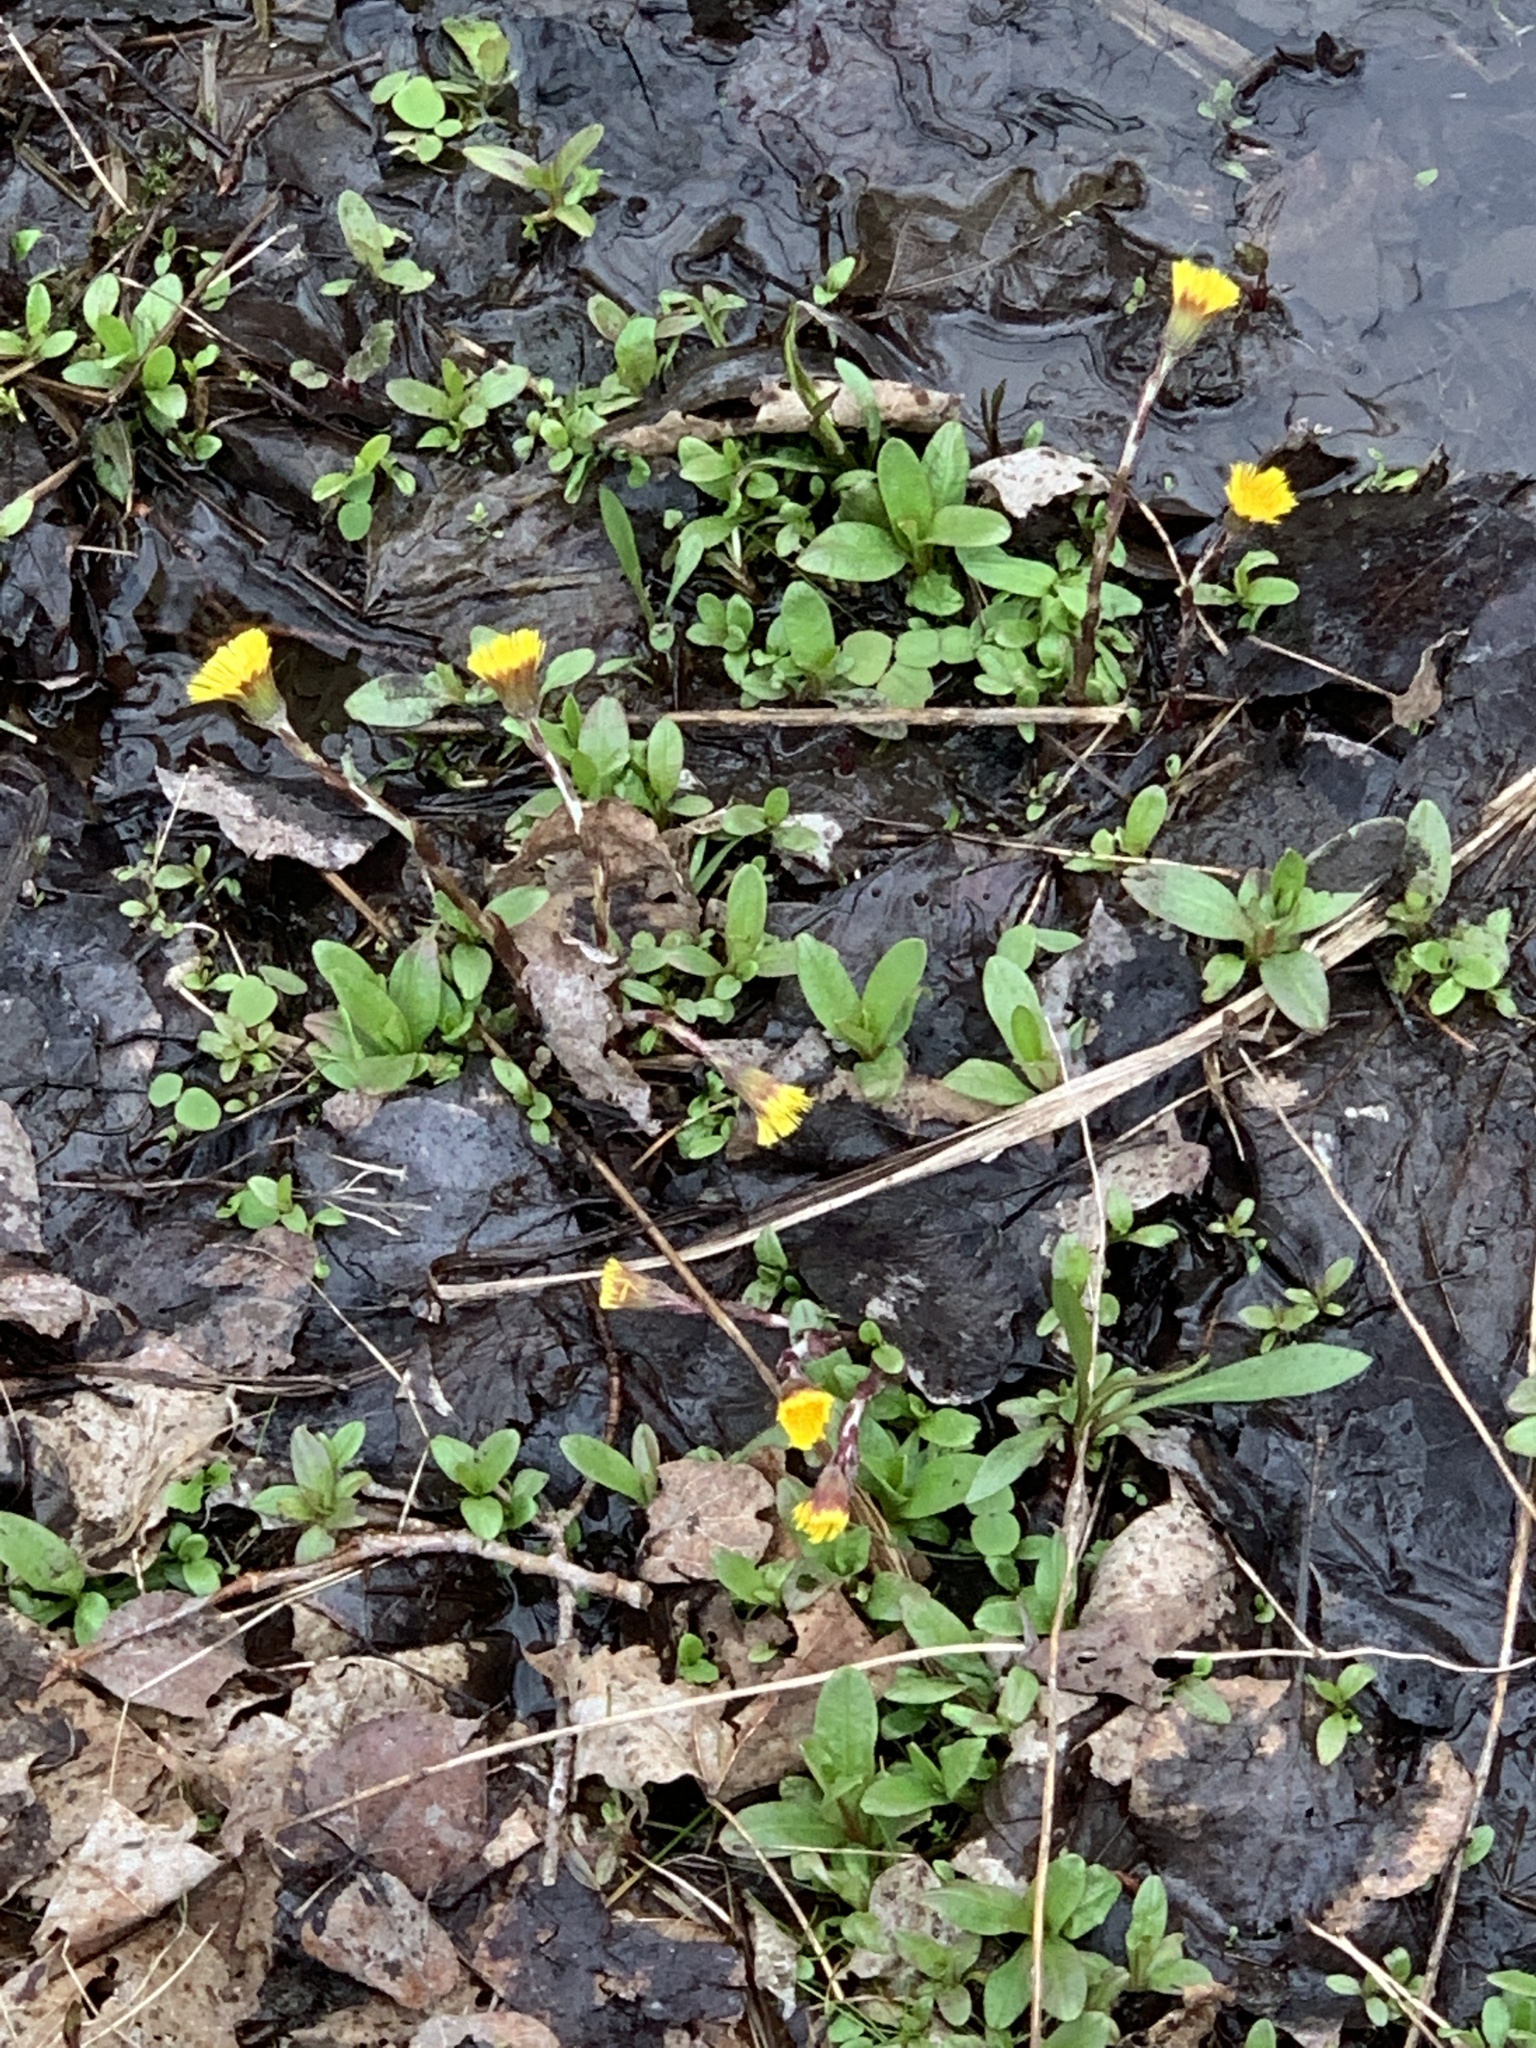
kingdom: Plantae
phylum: Tracheophyta
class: Magnoliopsida
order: Asterales
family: Asteraceae
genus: Tussilago
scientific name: Tussilago farfara
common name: Coltsfoot
